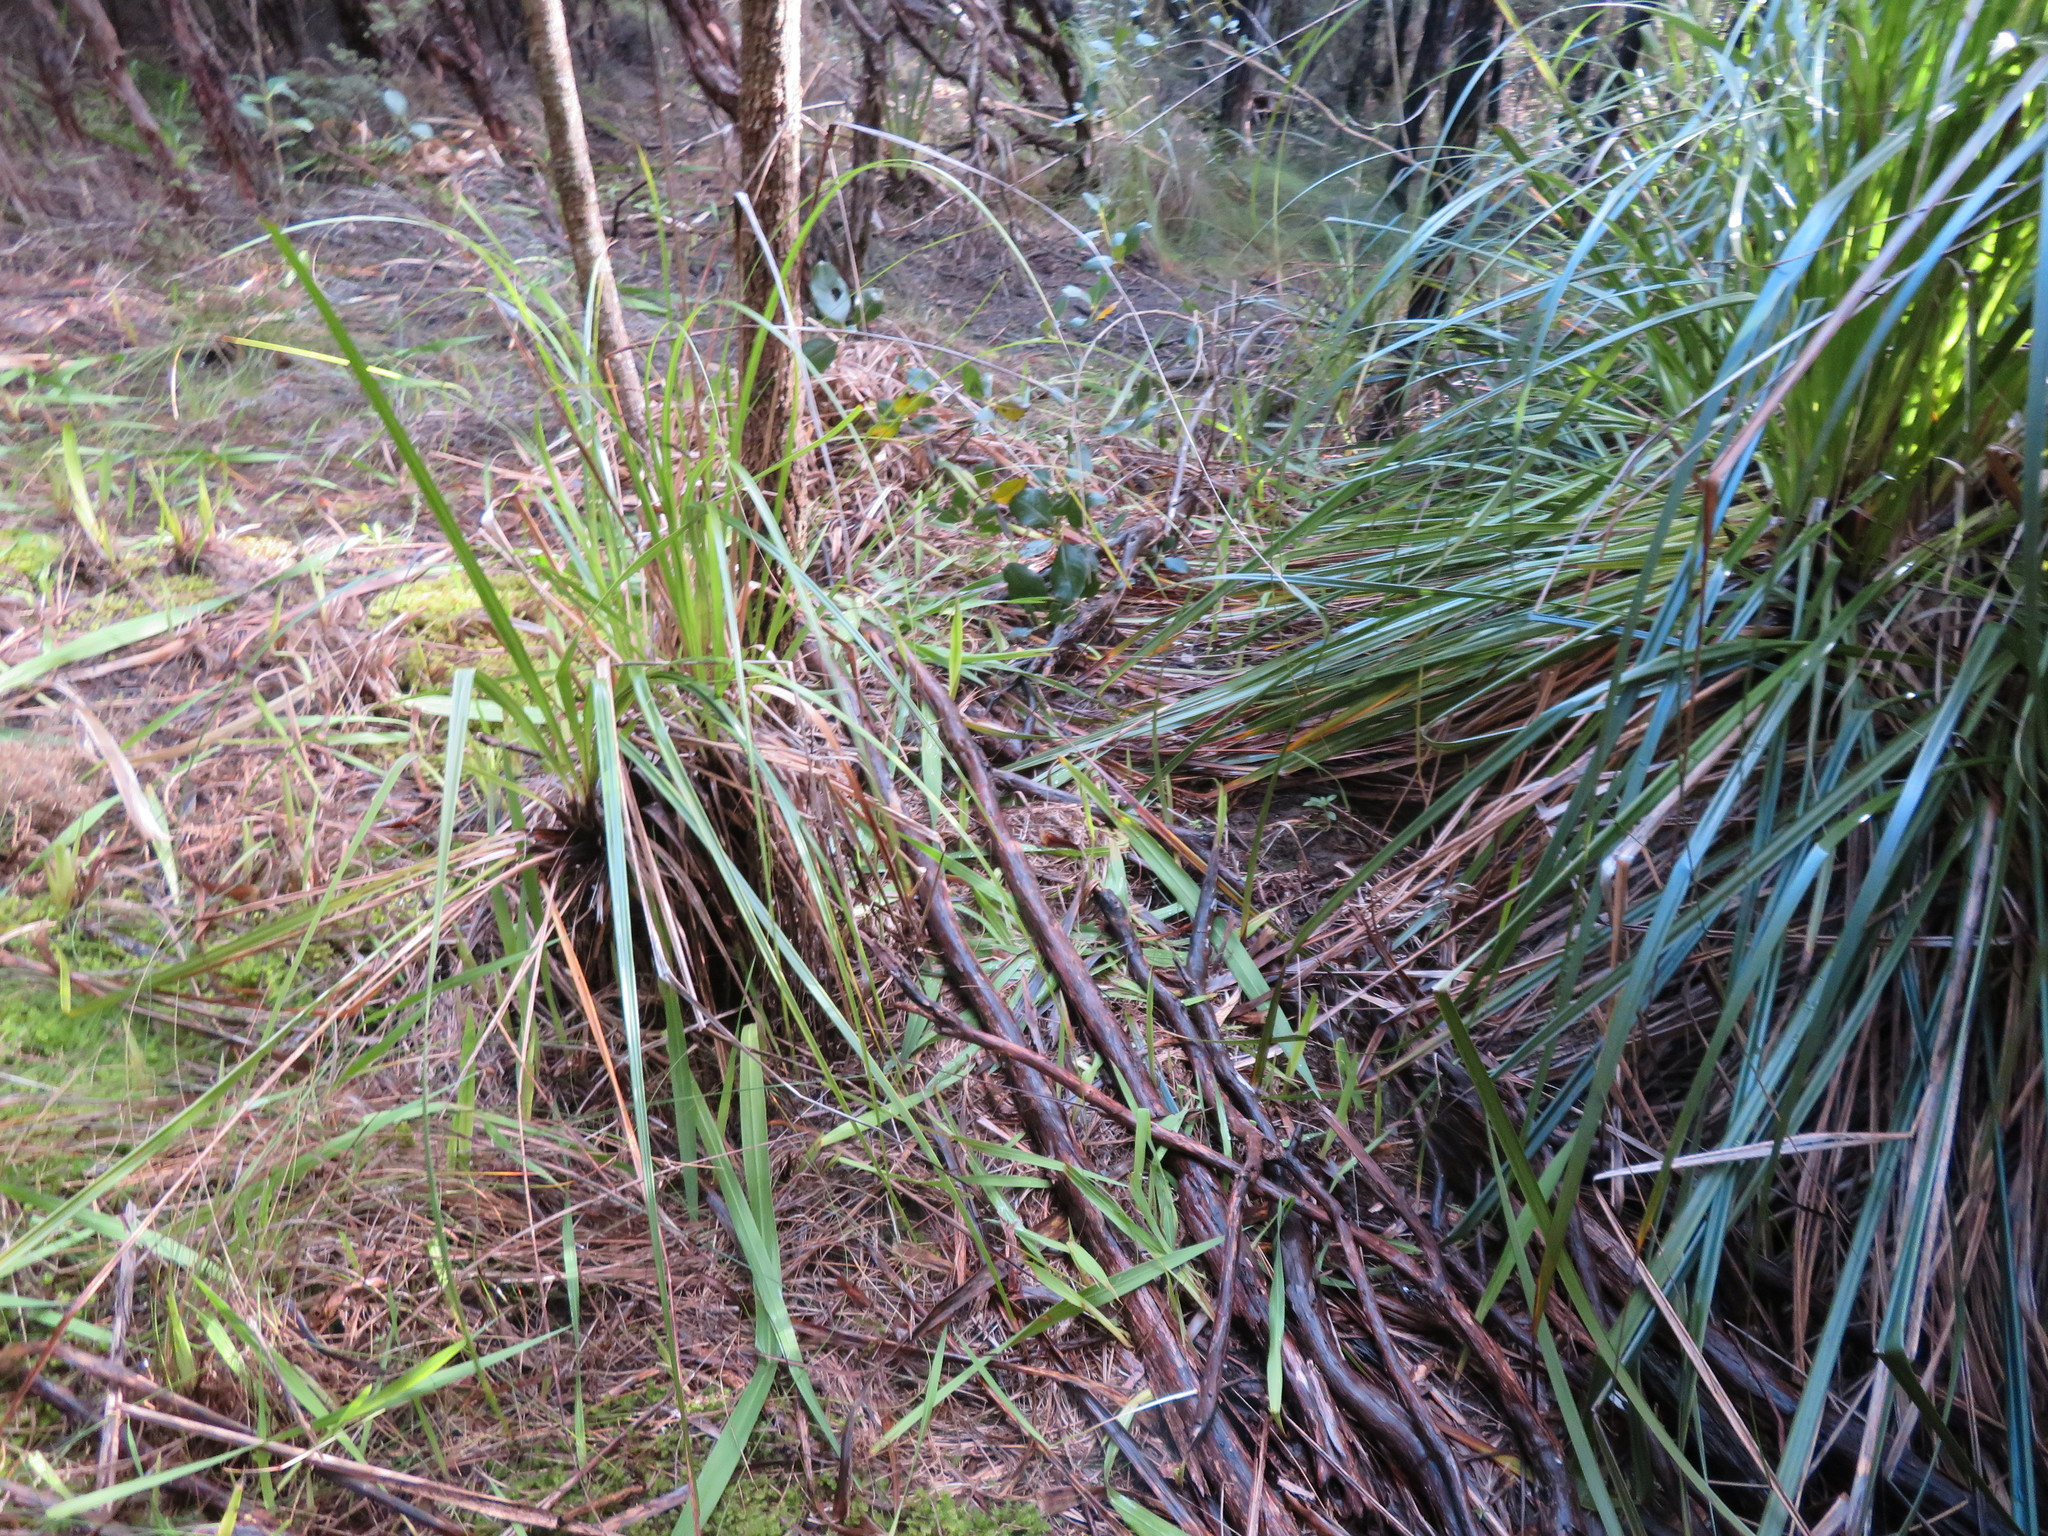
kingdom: Plantae
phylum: Tracheophyta
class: Liliopsida
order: Poales
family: Cyperaceae
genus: Gahnia
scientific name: Gahnia xanthocarpa
